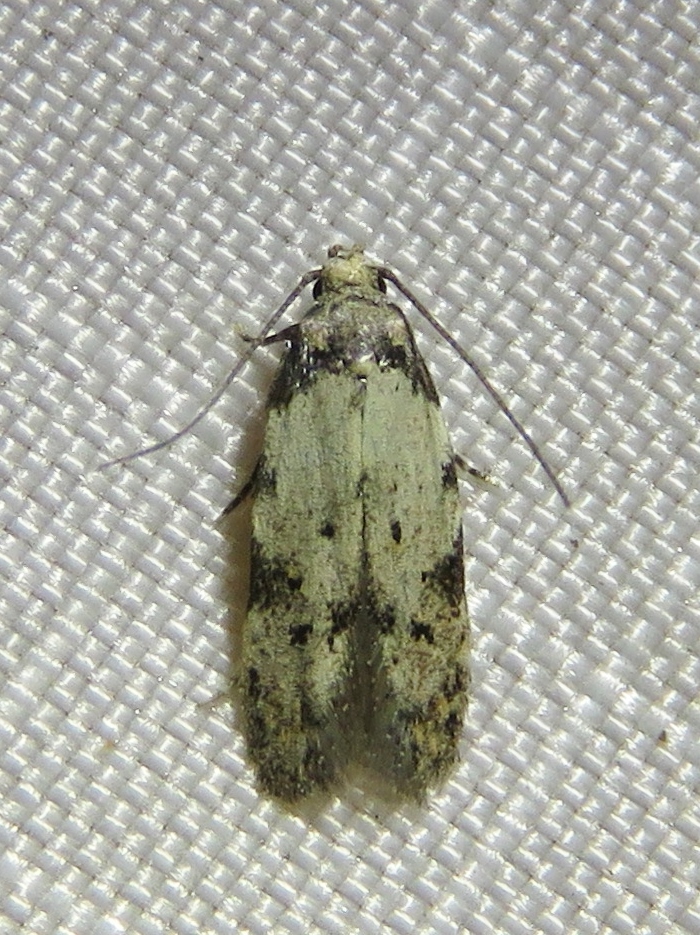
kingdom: Animalia
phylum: Arthropoda
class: Insecta
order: Lepidoptera
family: Autostichidae
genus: Taygete
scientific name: Taygete attributella
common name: Triangle-marked twirler moth
